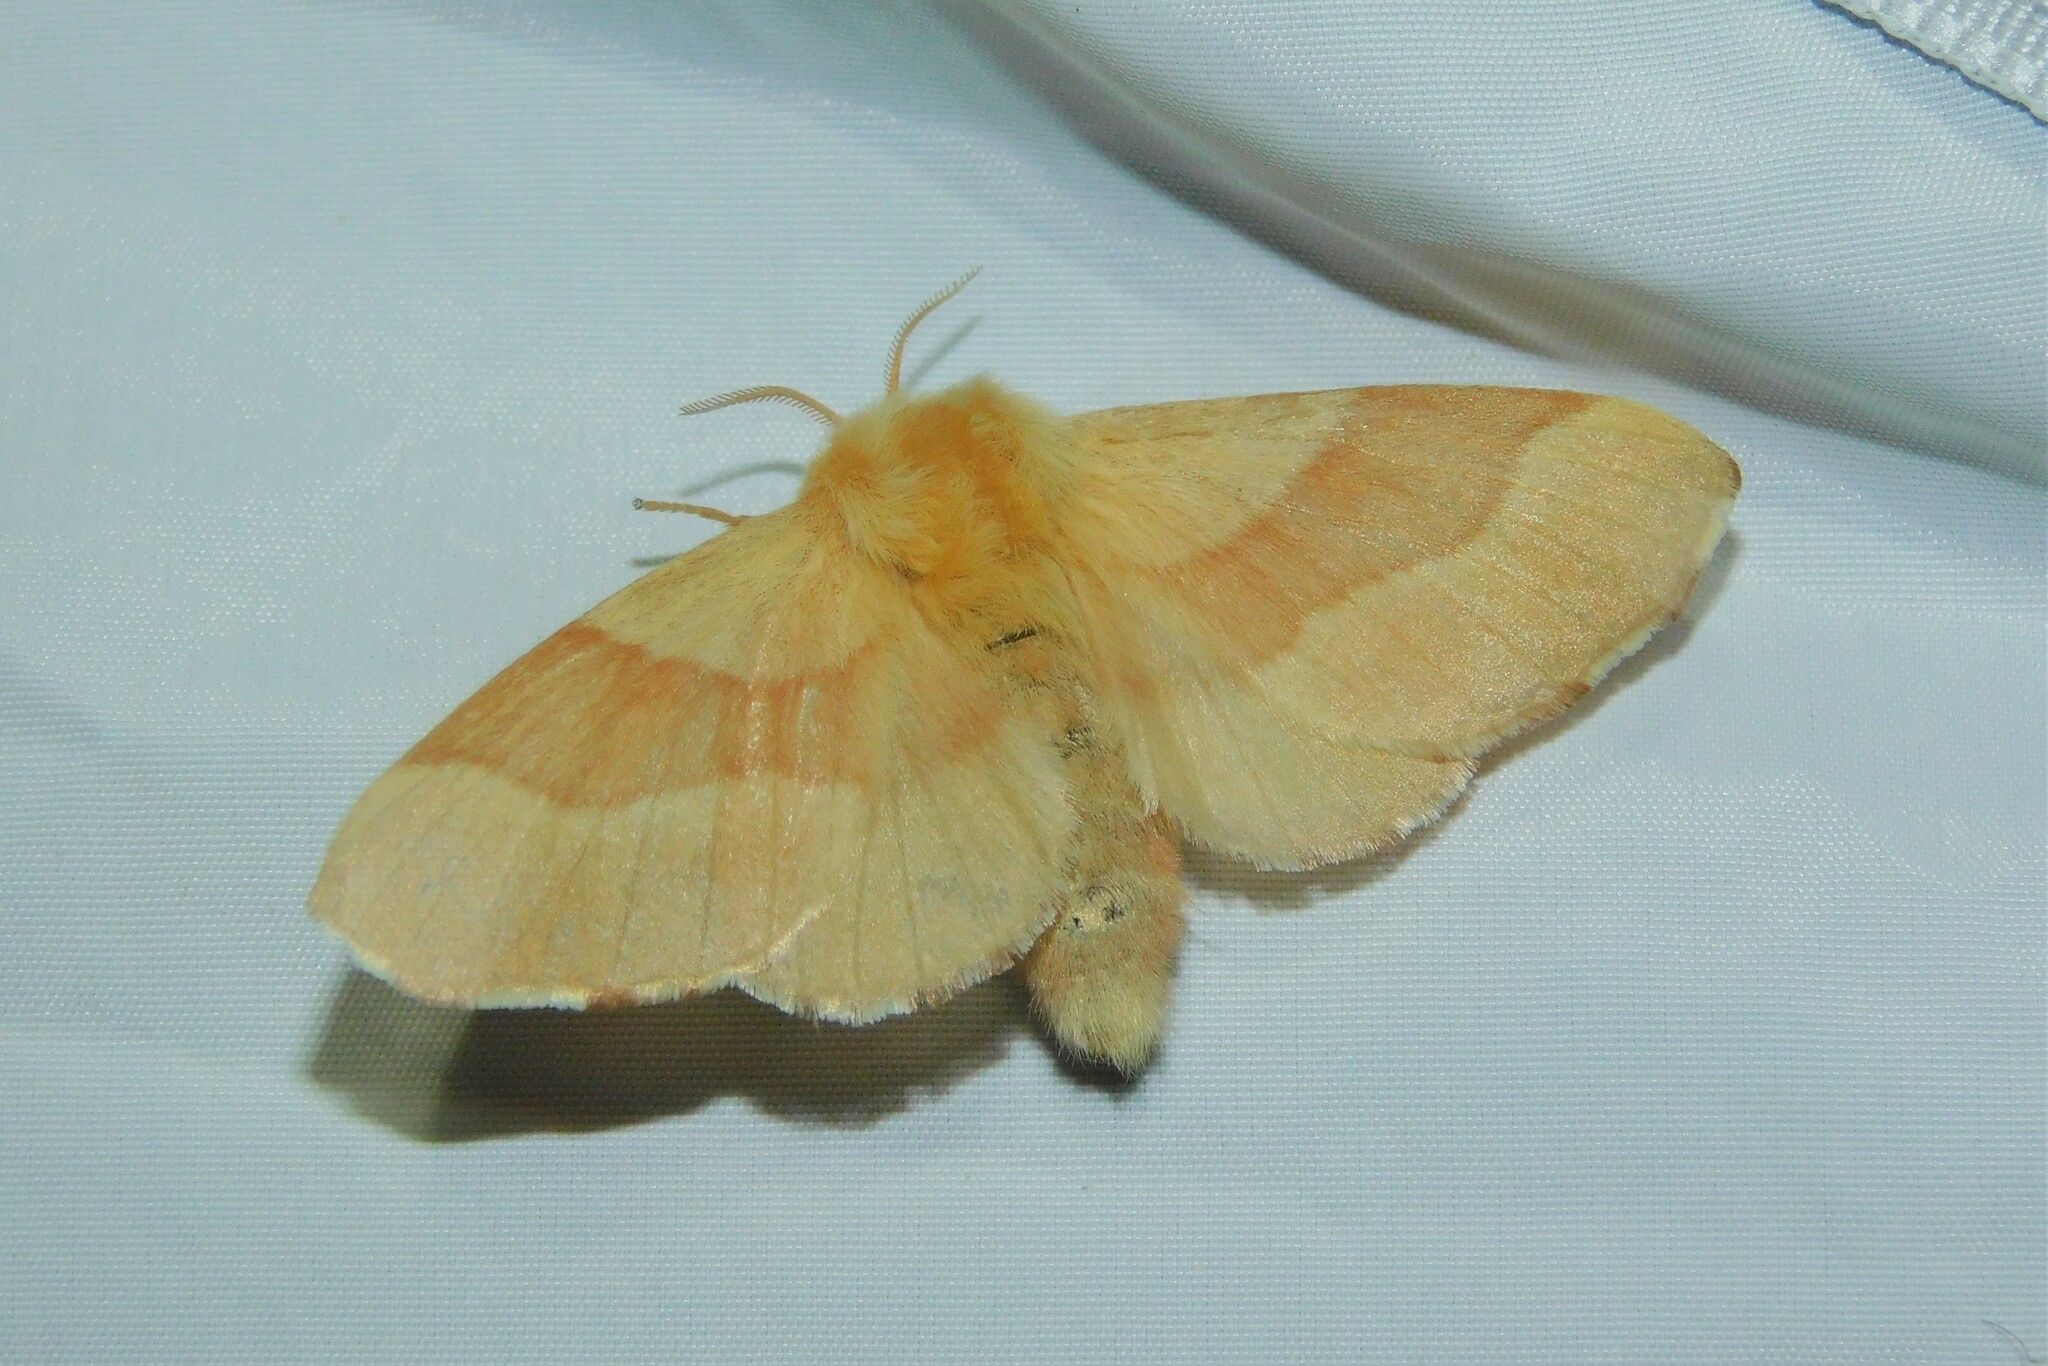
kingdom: Animalia
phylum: Arthropoda
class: Insecta
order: Lepidoptera
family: Lasiocampidae
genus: Malacosoma
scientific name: Malacosoma neustria
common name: The lackey
